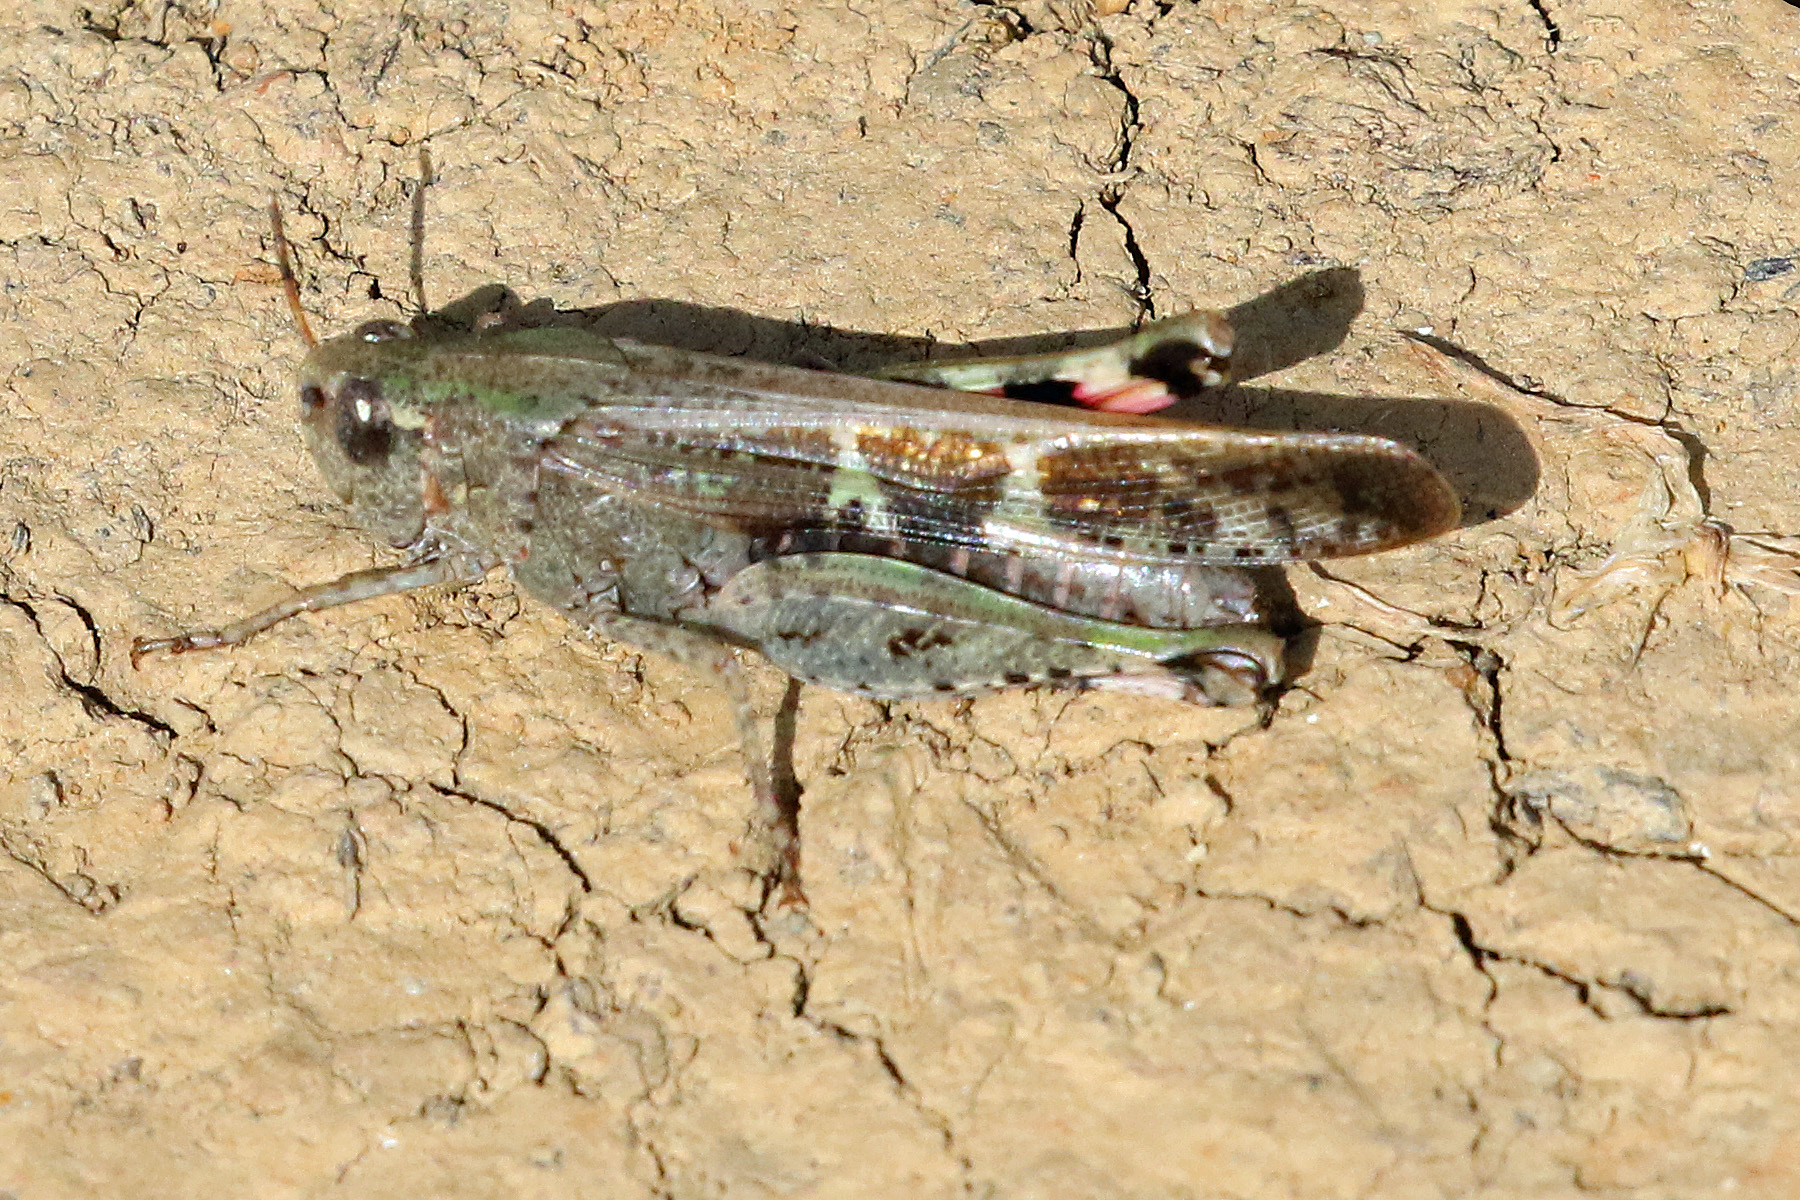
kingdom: Animalia
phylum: Arthropoda
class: Insecta
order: Orthoptera
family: Acrididae
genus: Aiolopus
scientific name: Aiolopus strepens
